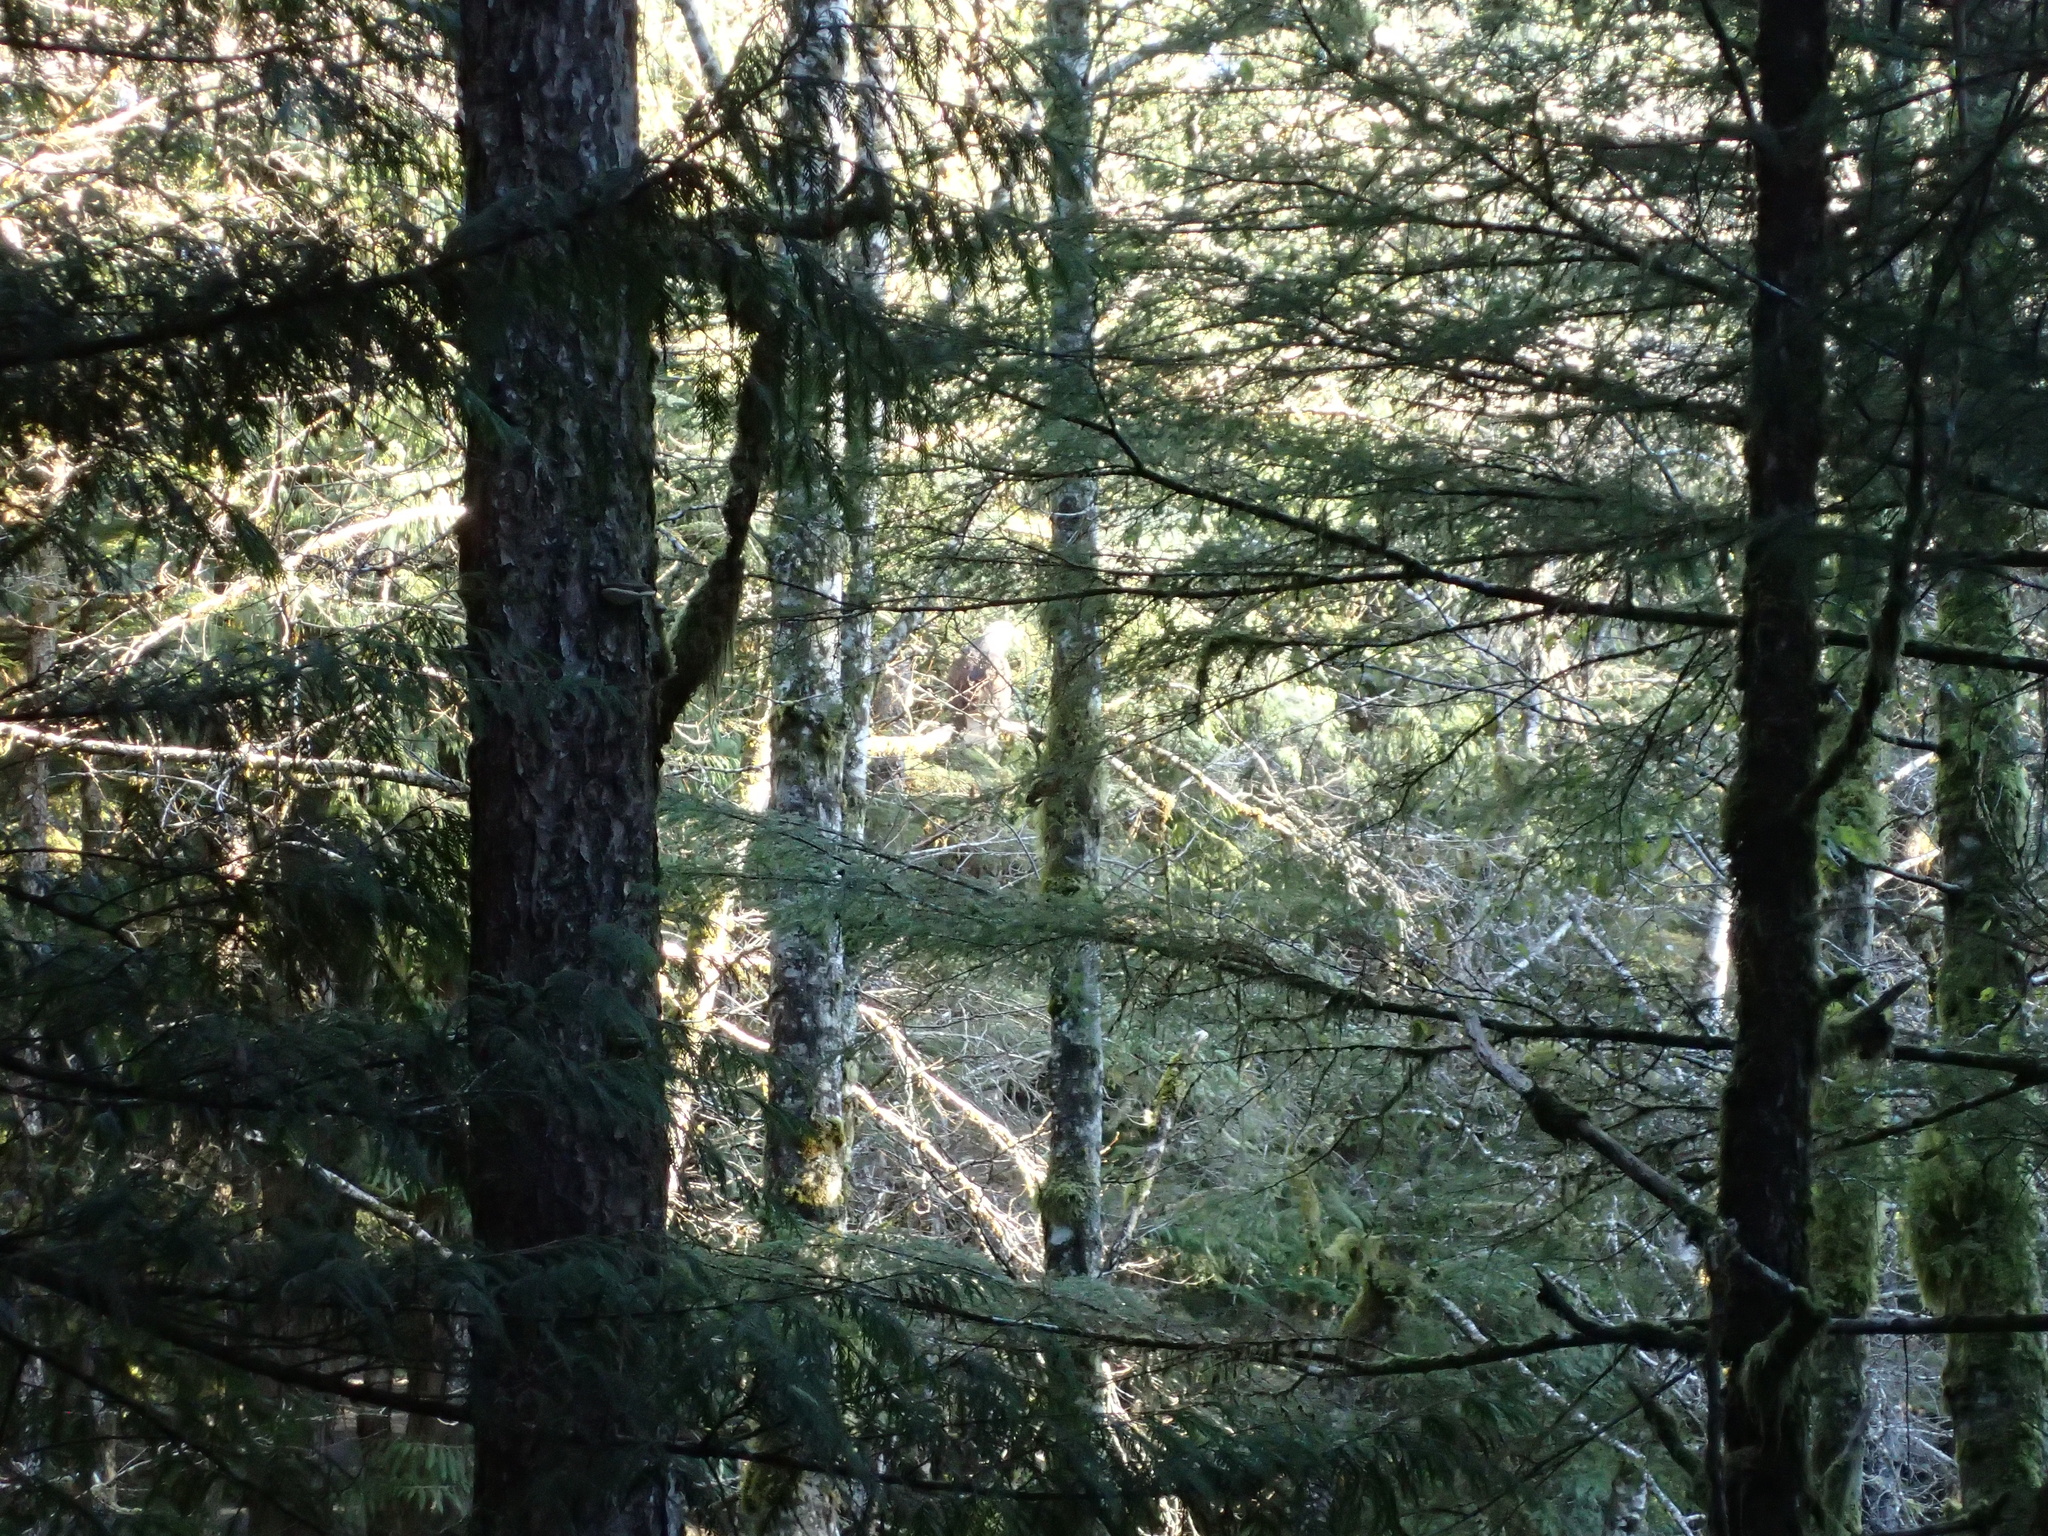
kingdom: Animalia
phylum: Chordata
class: Aves
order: Accipitriformes
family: Accipitridae
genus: Haliaeetus
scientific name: Haliaeetus leucocephalus
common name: Bald eagle
